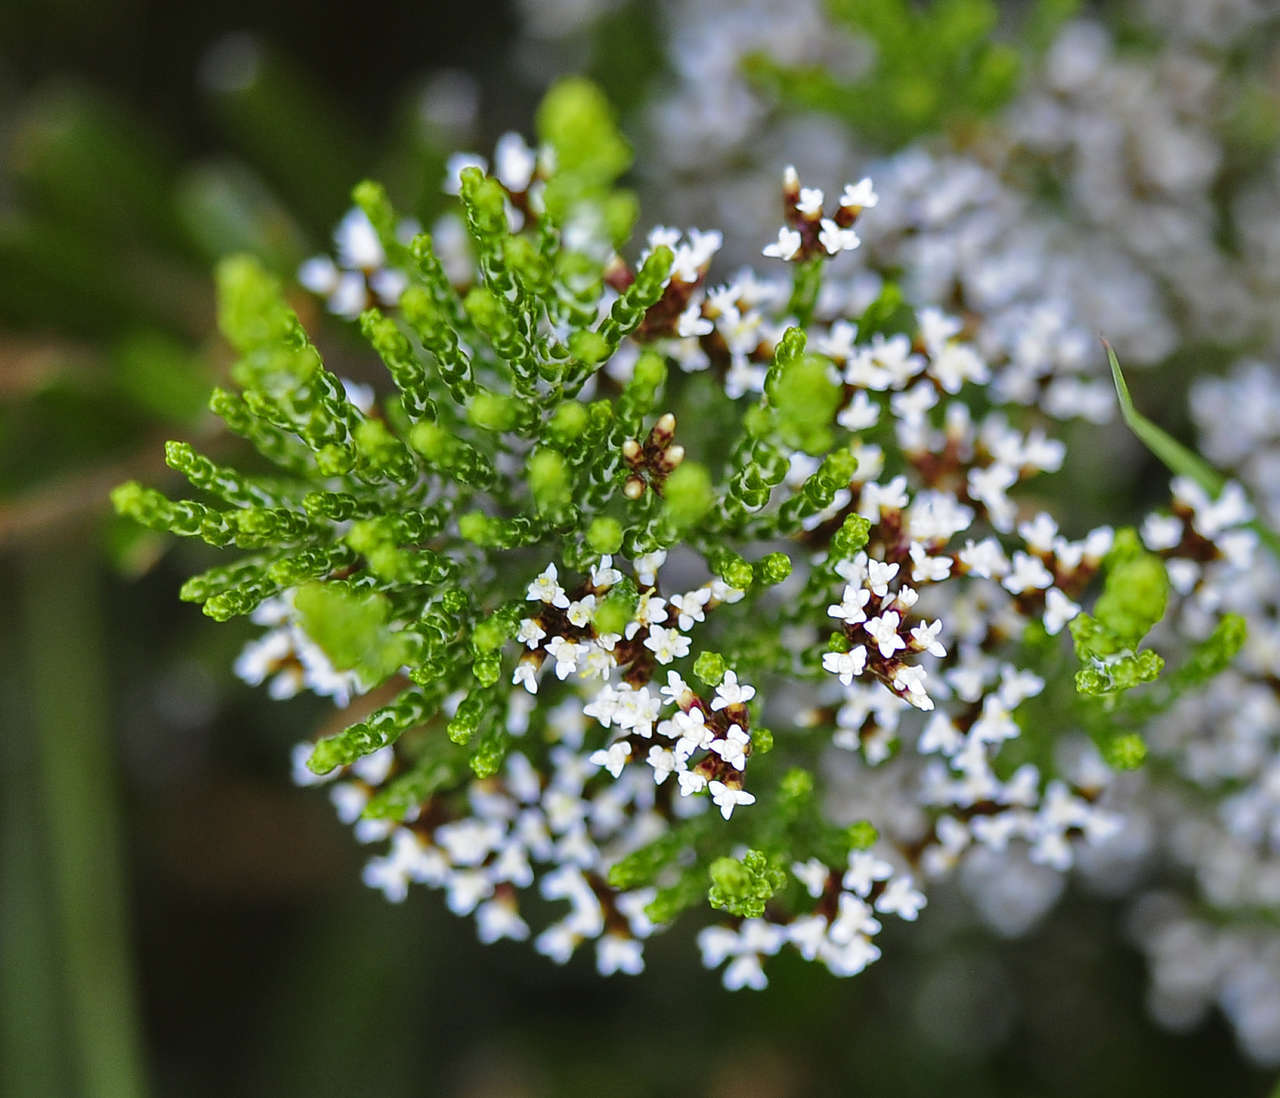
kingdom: Plantae
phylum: Tracheophyta
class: Magnoliopsida
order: Asterales
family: Asteraceae
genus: Ozothamnus
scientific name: Ozothamnus cupressoides
